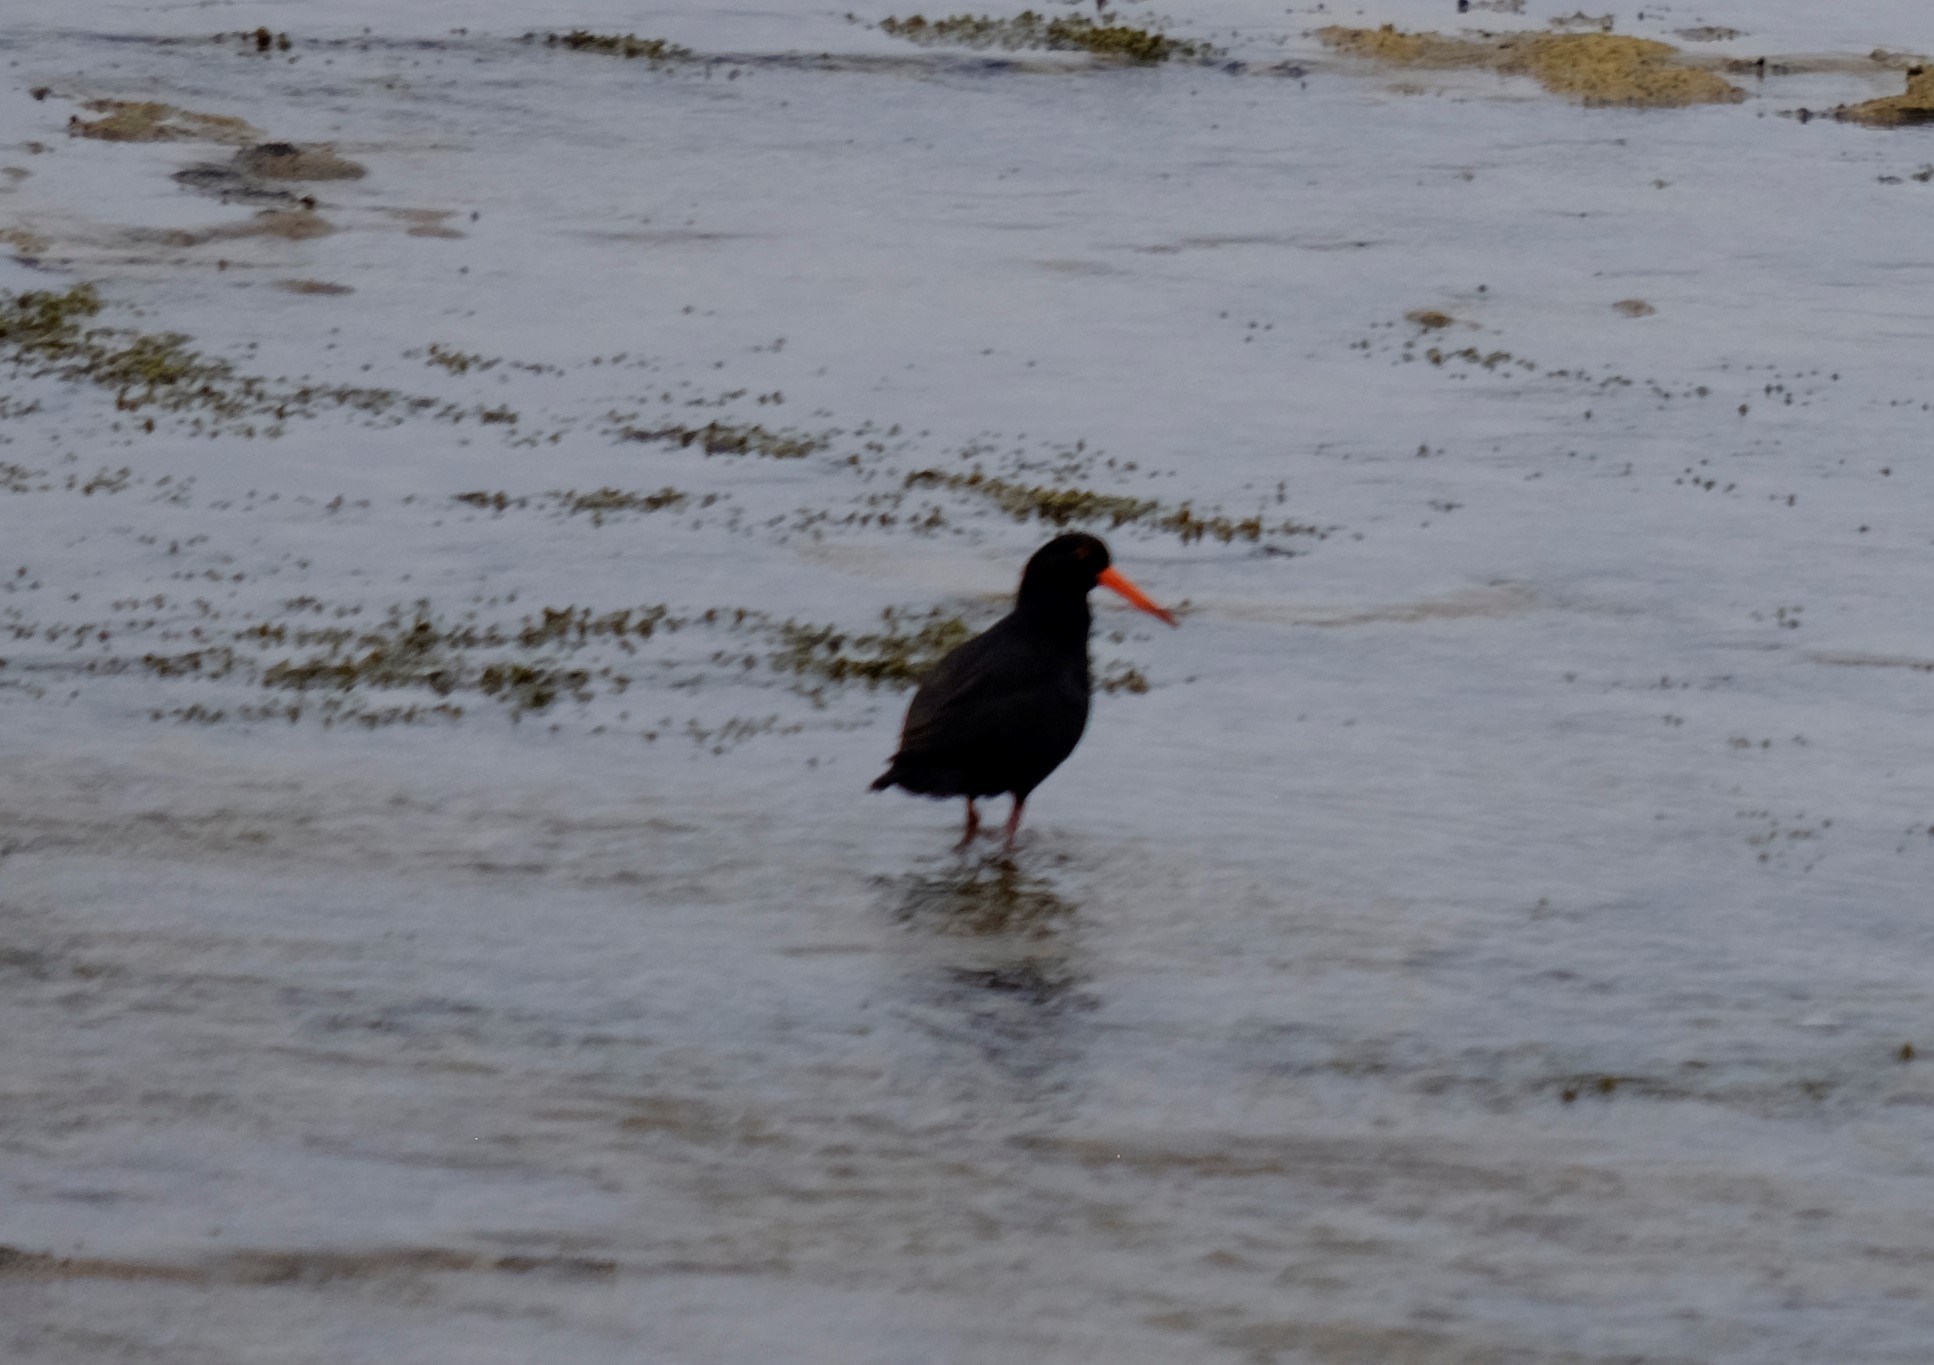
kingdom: Animalia
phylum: Chordata
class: Aves
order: Charadriiformes
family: Haematopodidae
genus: Haematopus
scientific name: Haematopus fuliginosus
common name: Sooty oystercatcher
